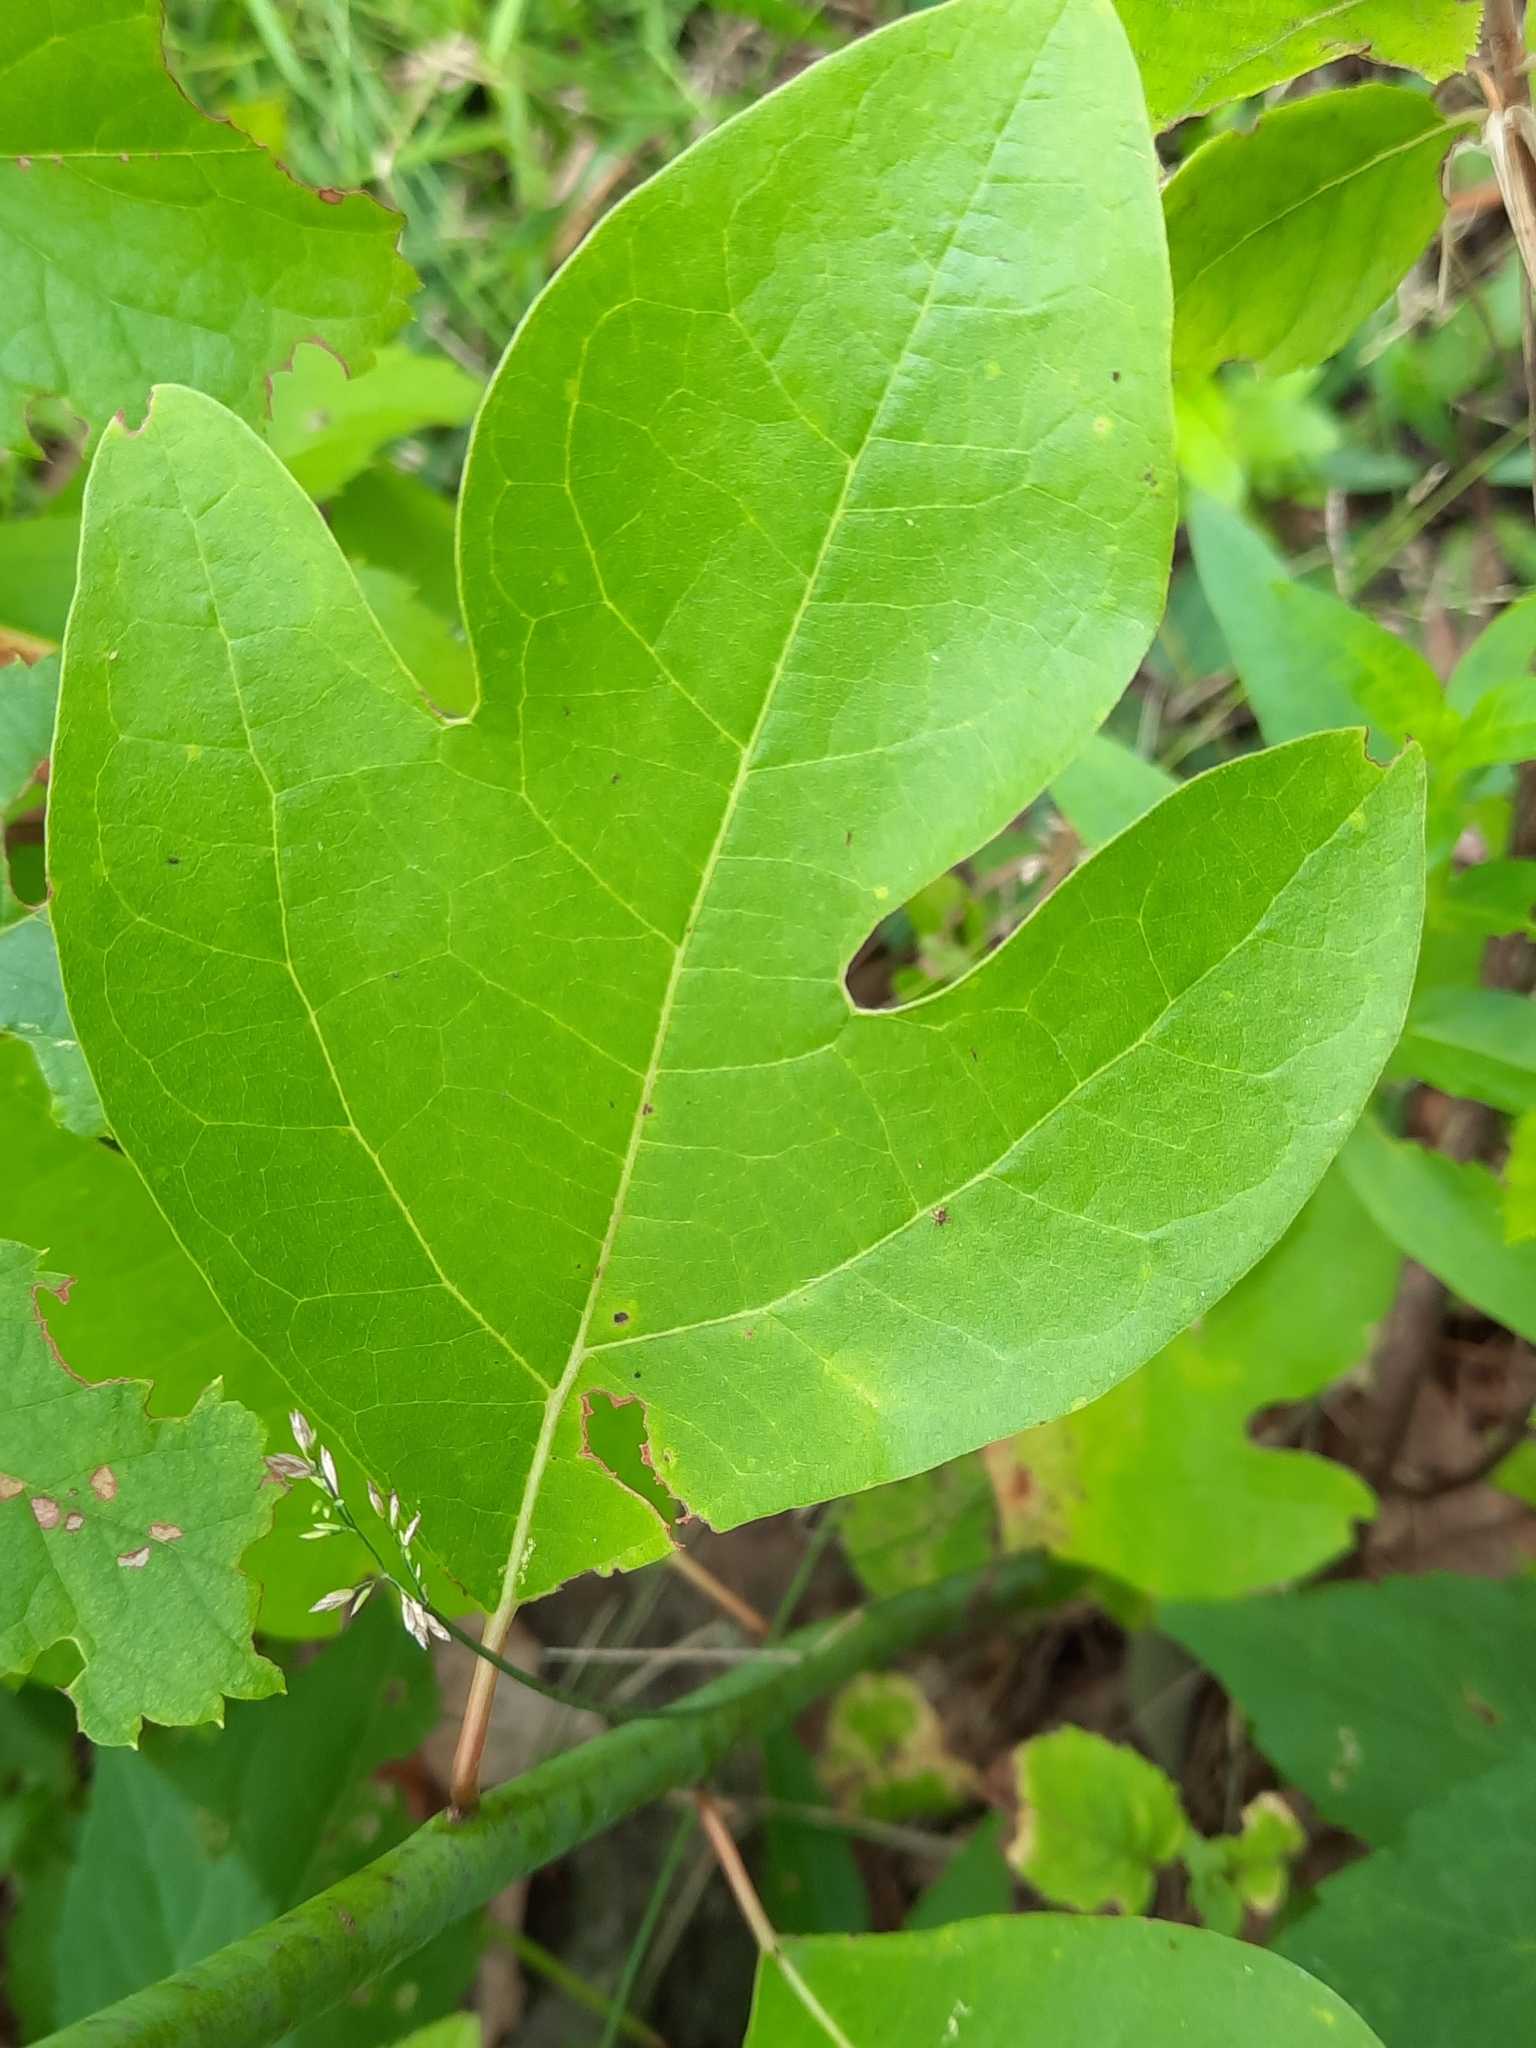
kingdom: Plantae
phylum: Tracheophyta
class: Magnoliopsida
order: Laurales
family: Lauraceae
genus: Sassafras
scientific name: Sassafras albidum
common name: Sassafras
